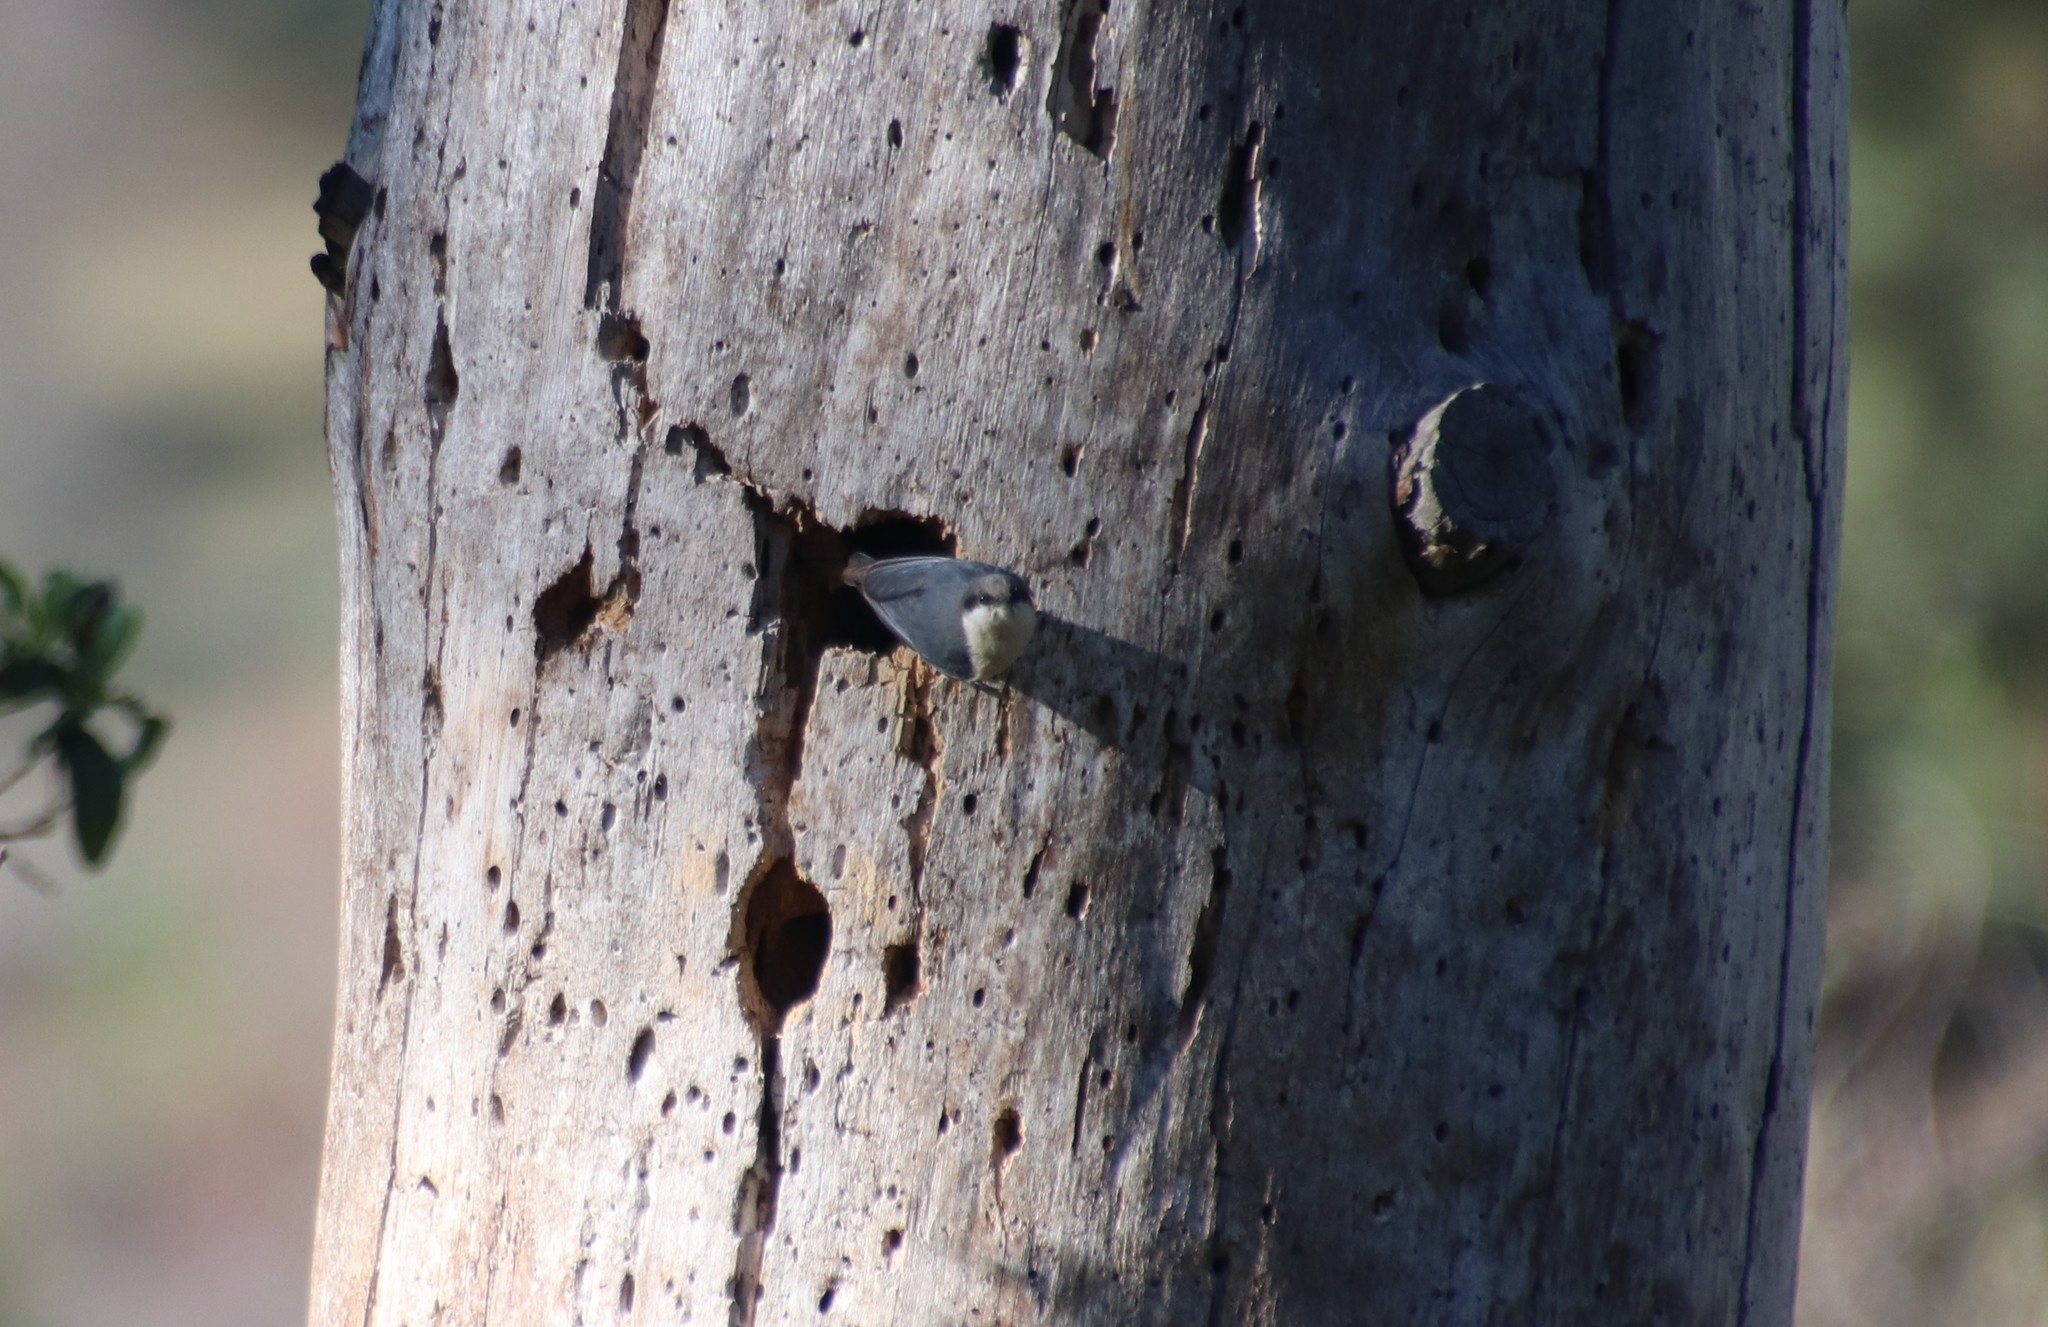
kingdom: Animalia
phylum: Chordata
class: Aves
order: Passeriformes
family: Sittidae
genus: Sitta
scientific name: Sitta pygmaea
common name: Pygmy nuthatch
